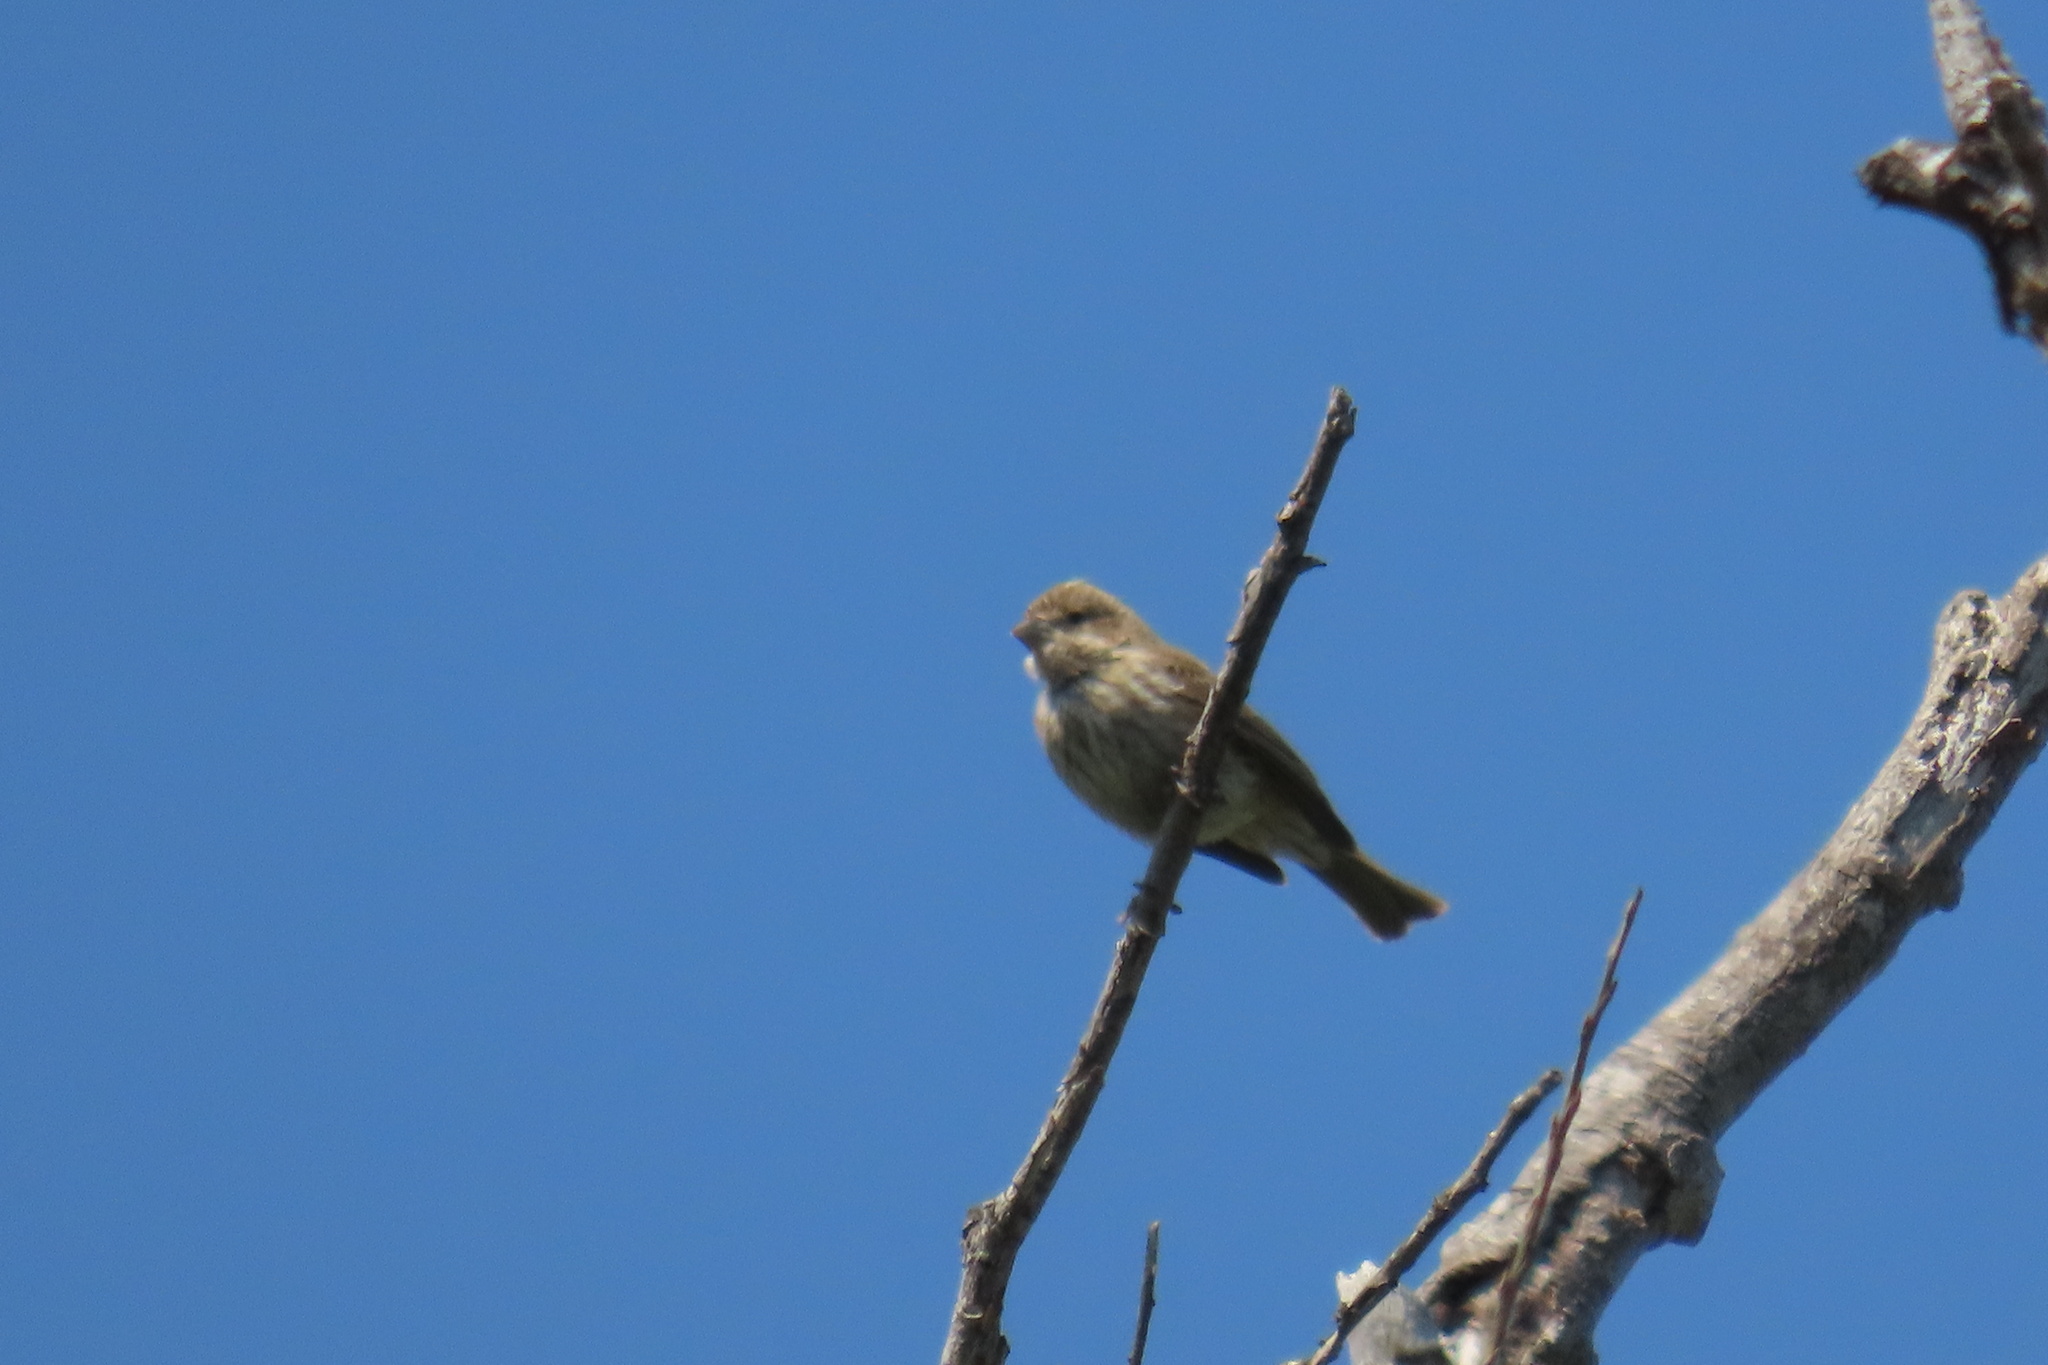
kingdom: Animalia
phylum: Chordata
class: Aves
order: Passeriformes
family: Fringillidae
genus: Haemorhous
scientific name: Haemorhous mexicanus
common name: House finch
